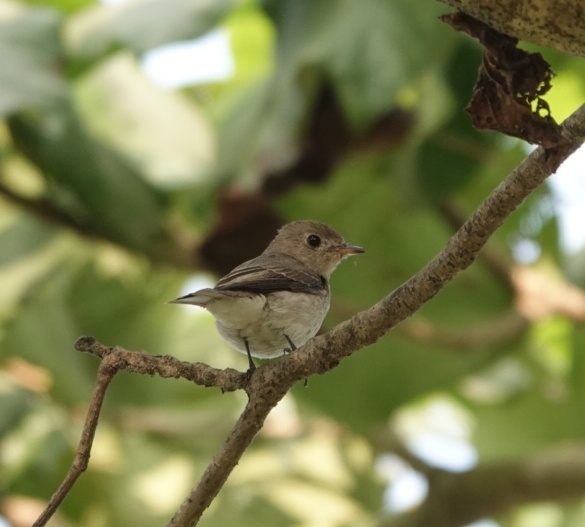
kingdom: Animalia
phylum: Chordata
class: Aves
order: Passeriformes
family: Muscicapidae
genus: Muscicapa
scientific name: Muscicapa latirostris
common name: Asian brown flycatcher
